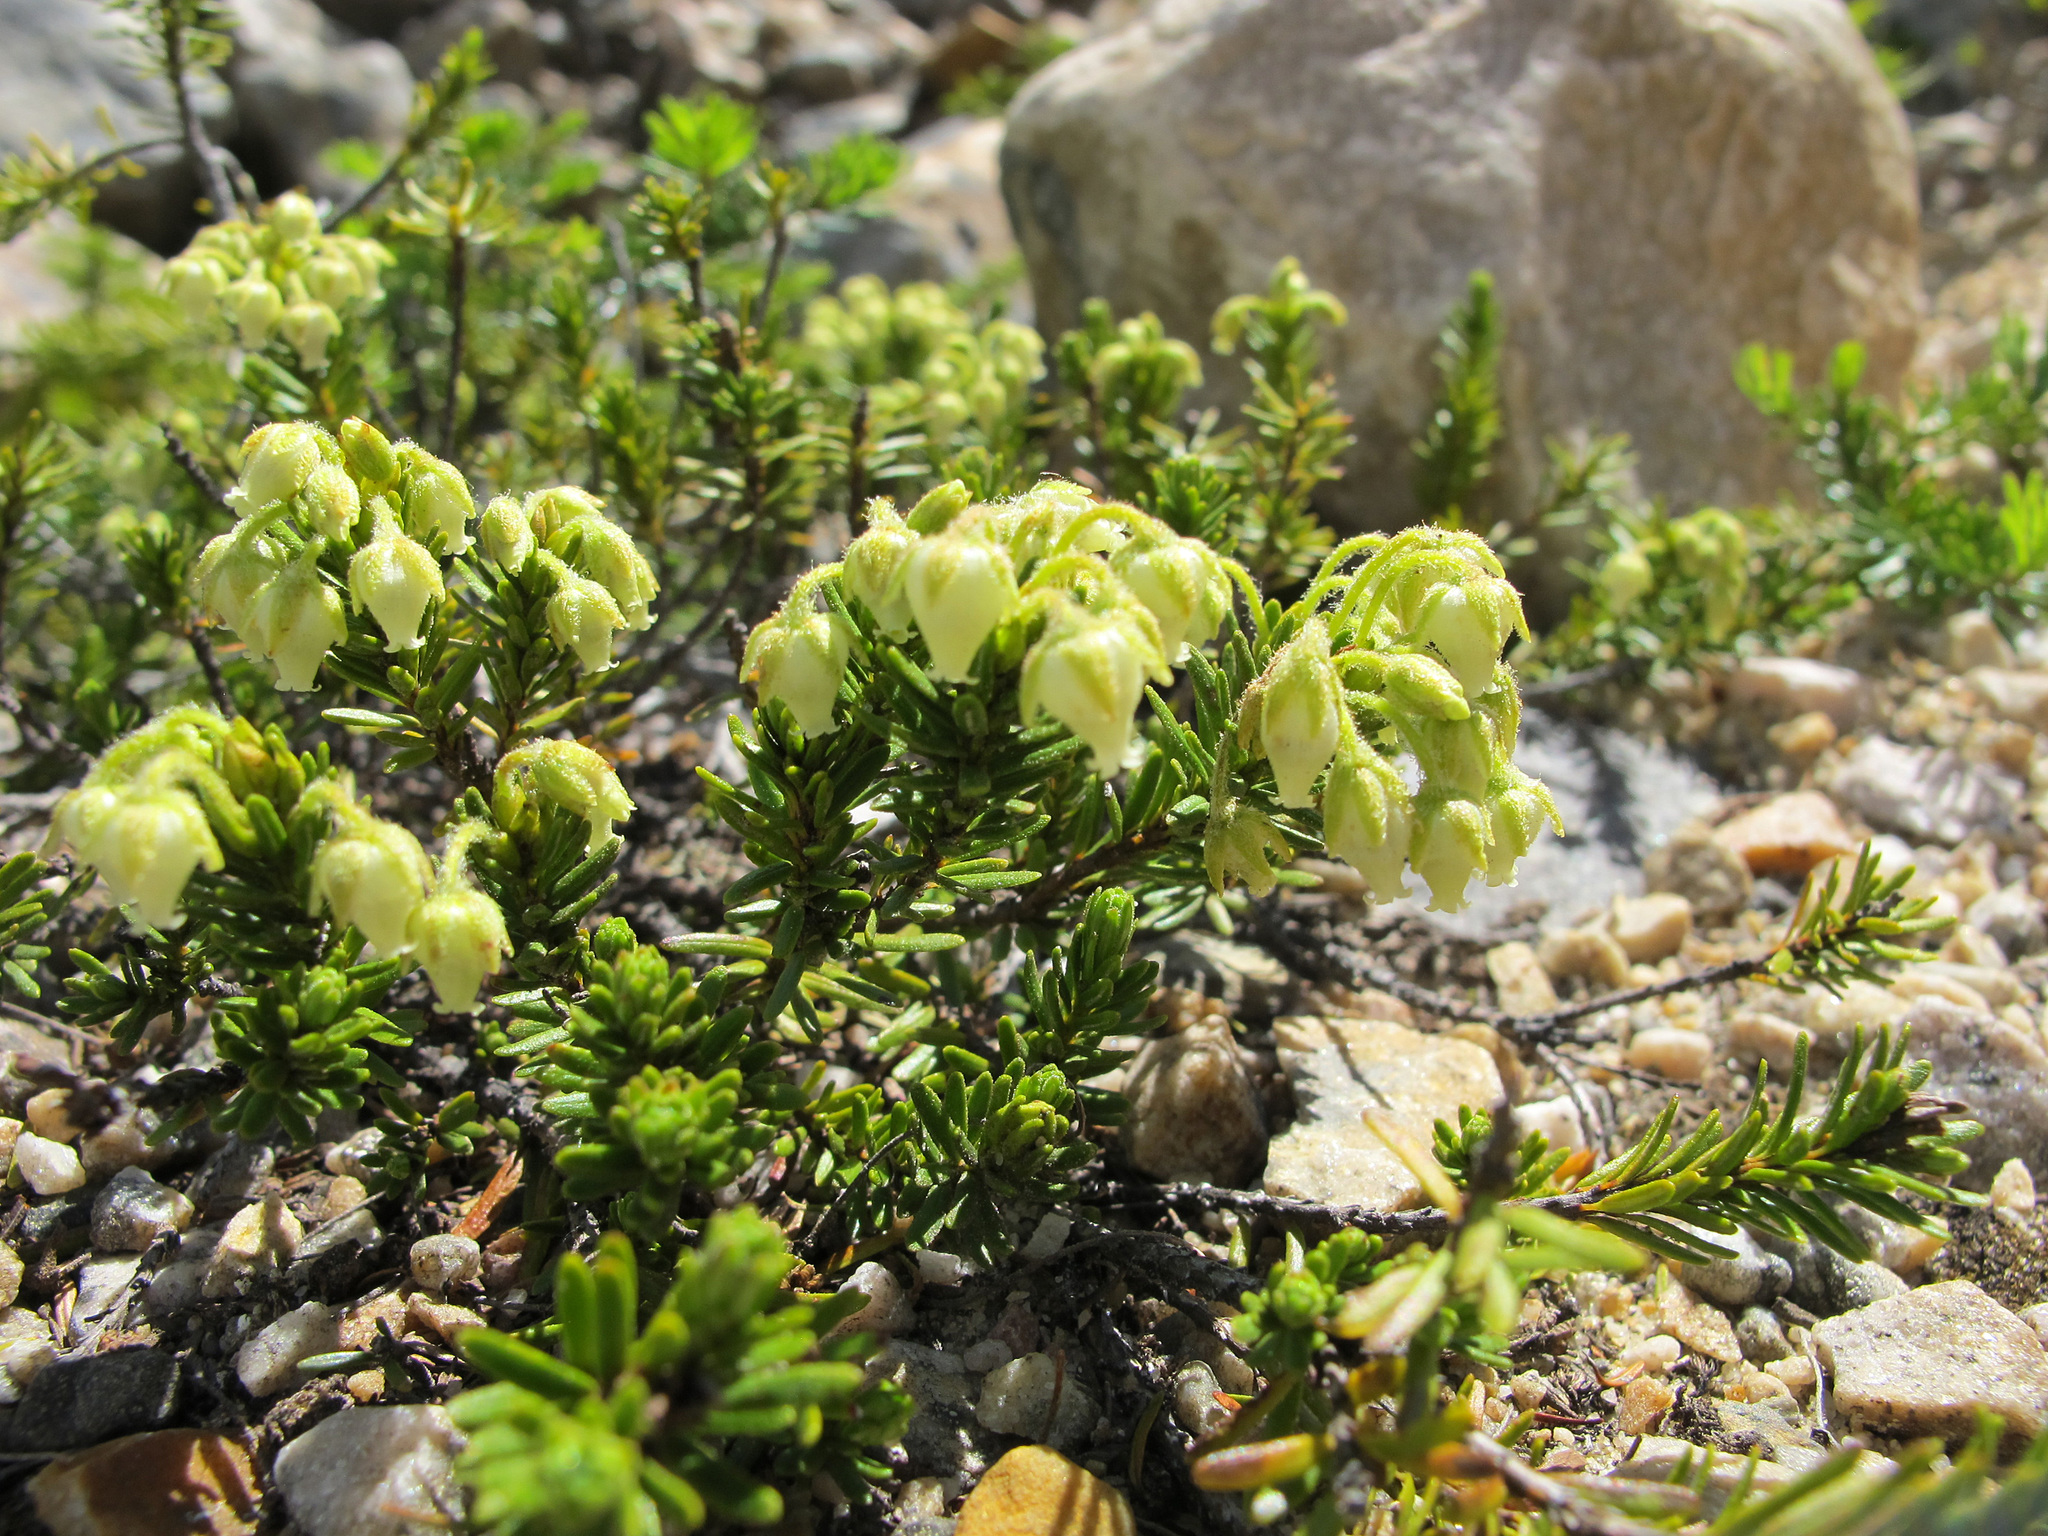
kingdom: Plantae
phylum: Tracheophyta
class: Magnoliopsida
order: Ericales
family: Ericaceae
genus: Phyllodoce
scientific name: Phyllodoce glanduliflora
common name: Cream mountain heather
